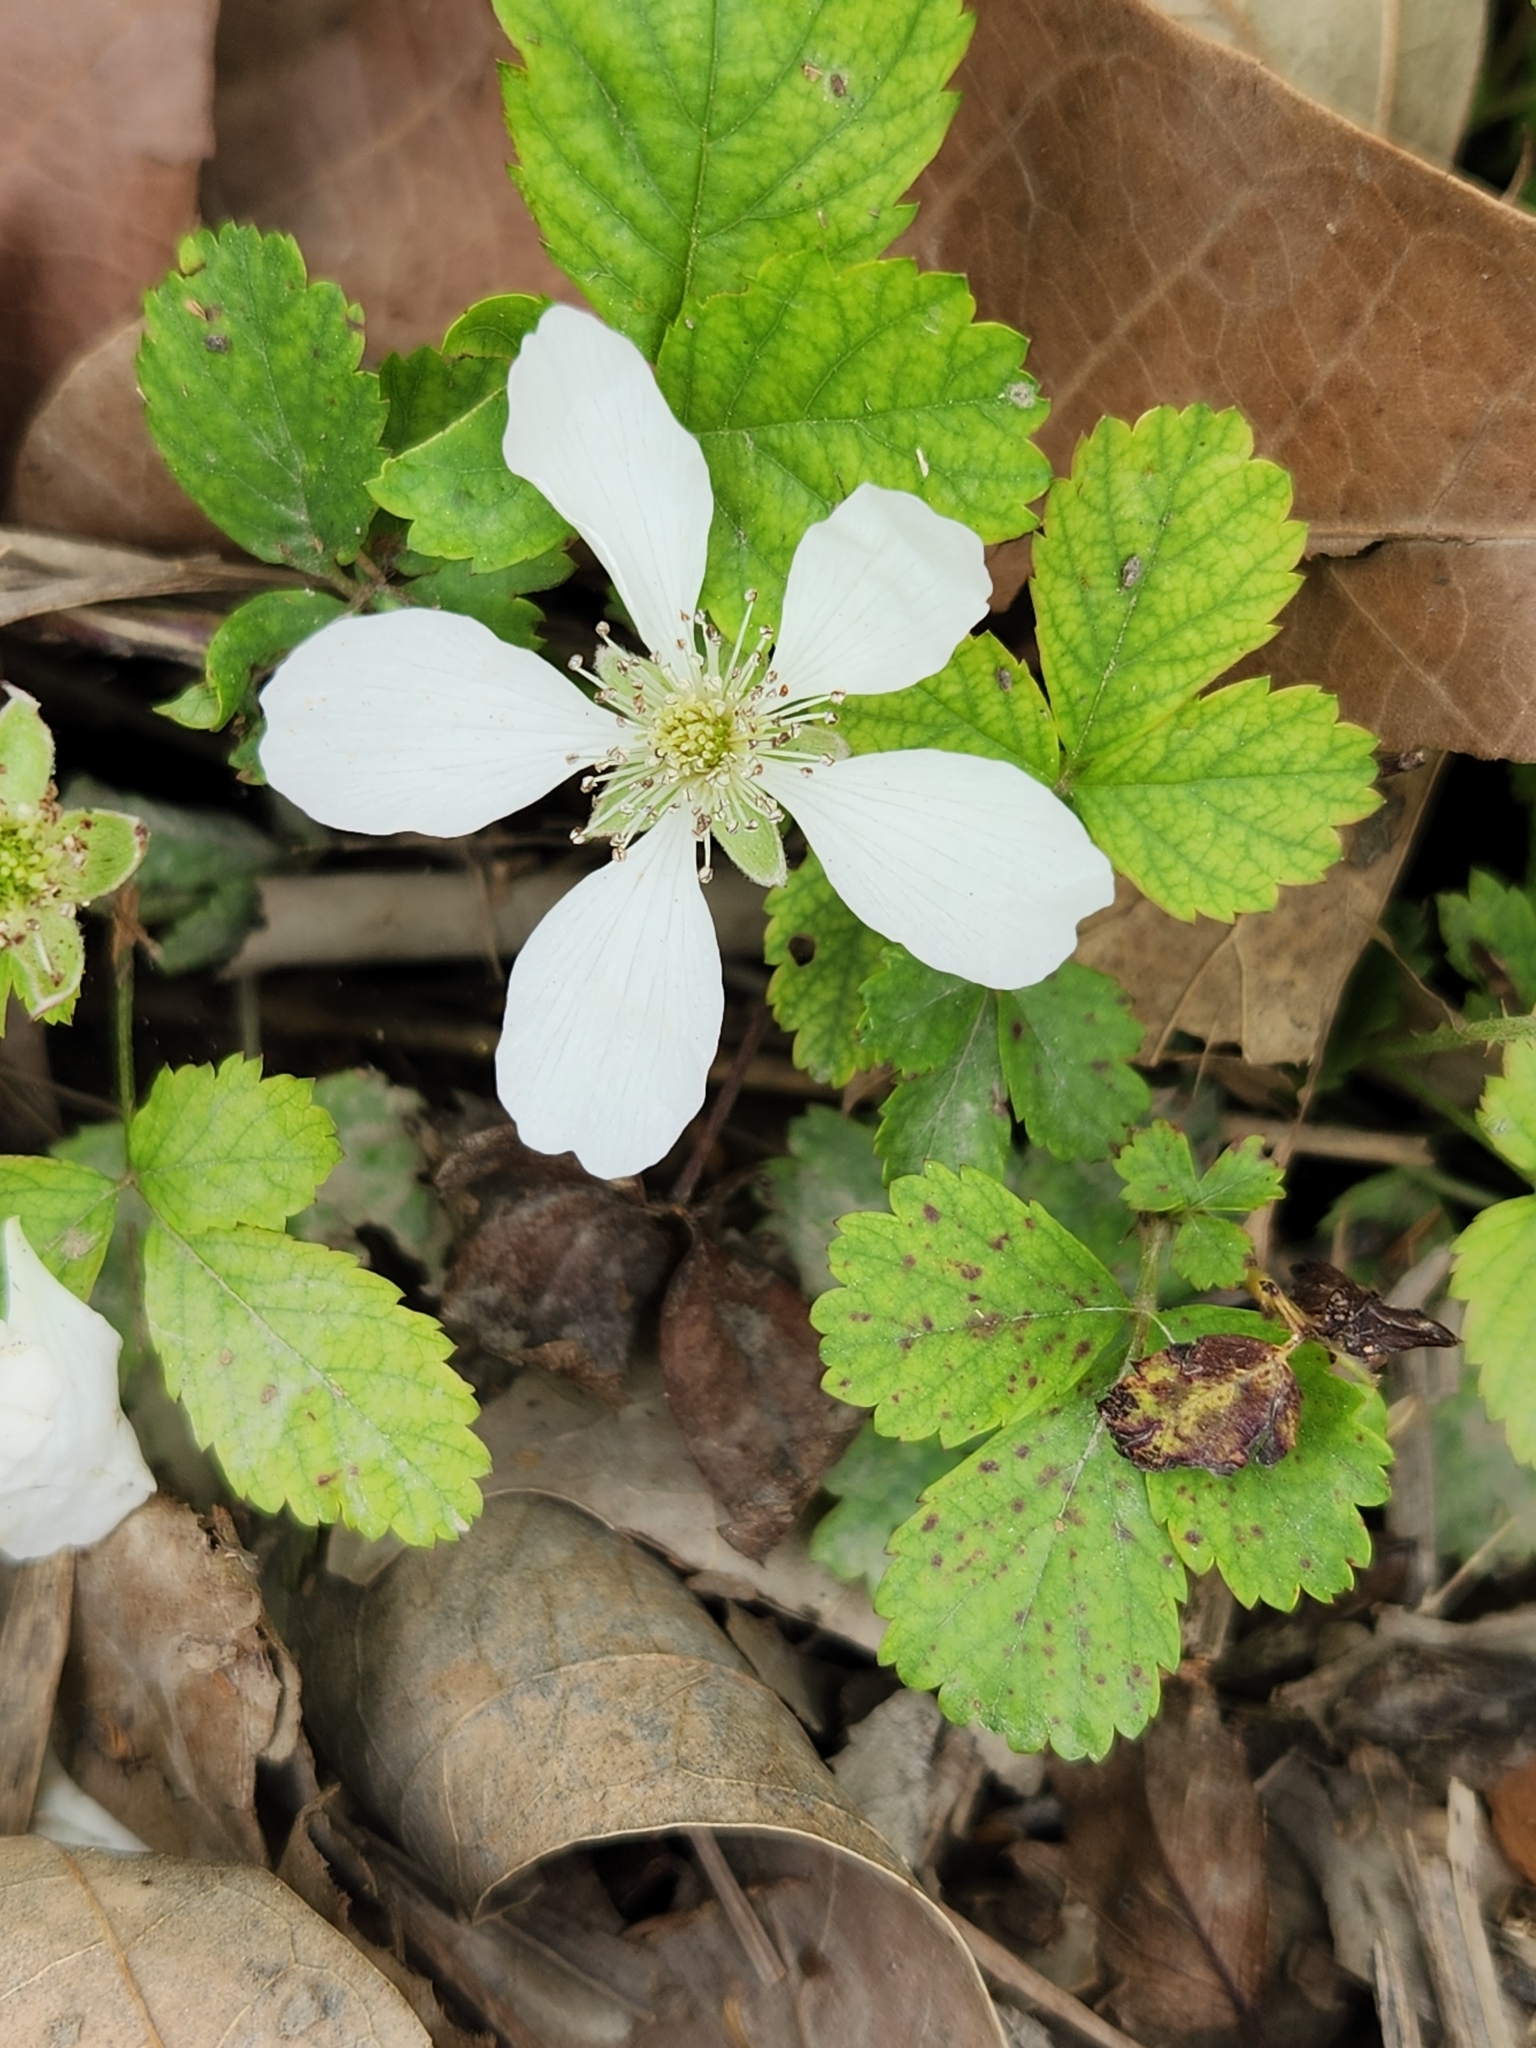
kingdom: Plantae
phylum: Tracheophyta
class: Magnoliopsida
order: Rosales
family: Rosaceae
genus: Rubus
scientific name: Rubus trivialis
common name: Southern dewberry
